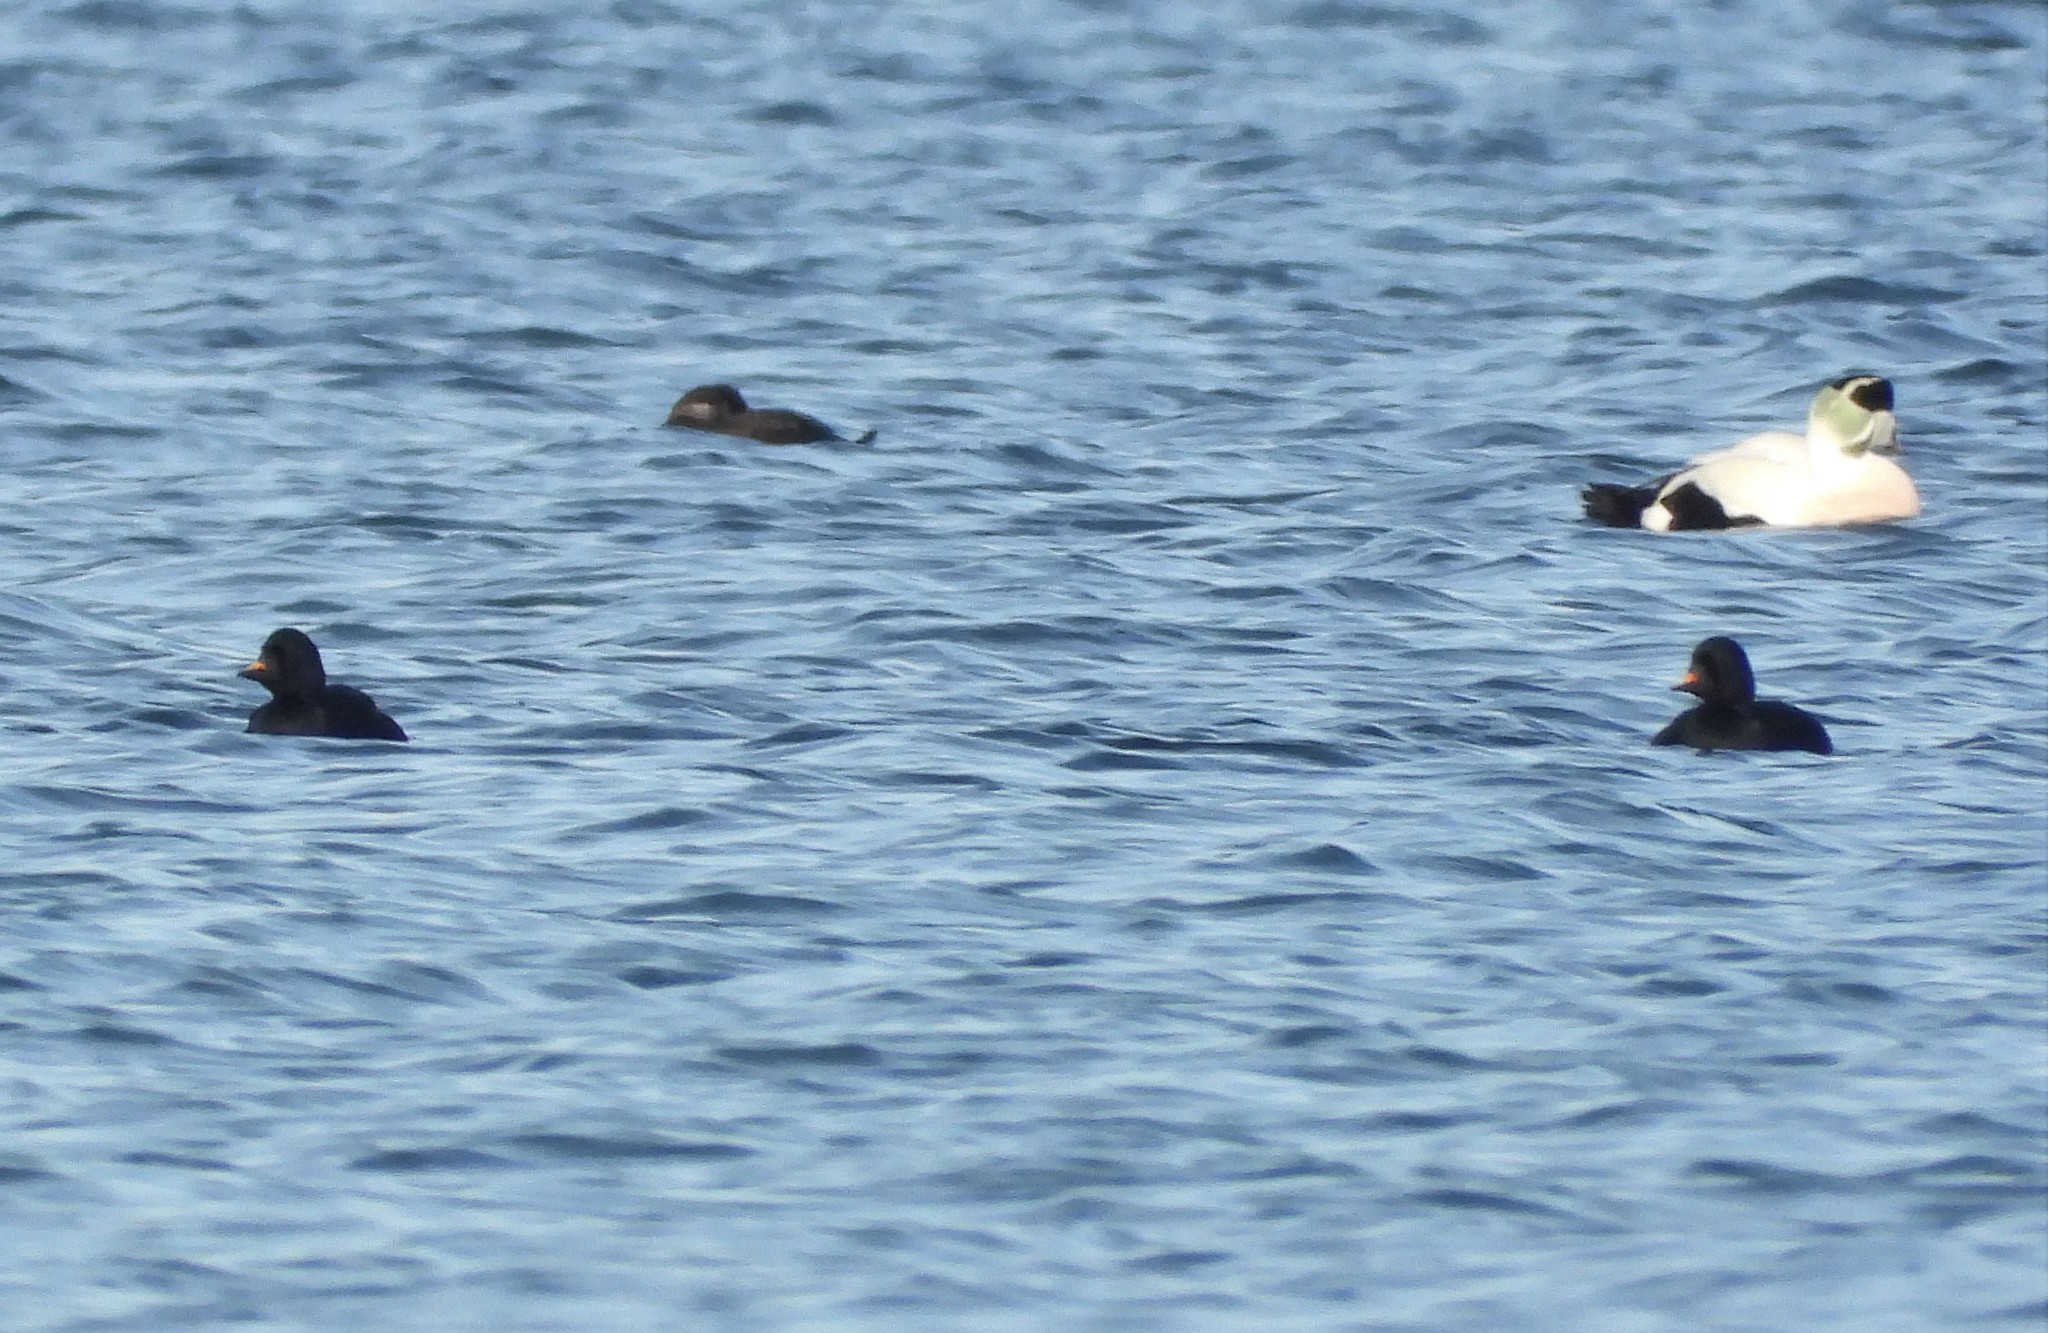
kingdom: Animalia
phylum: Chordata
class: Aves
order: Anseriformes
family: Anatidae
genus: Melanitta
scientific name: Melanitta nigra
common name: Common scoter
